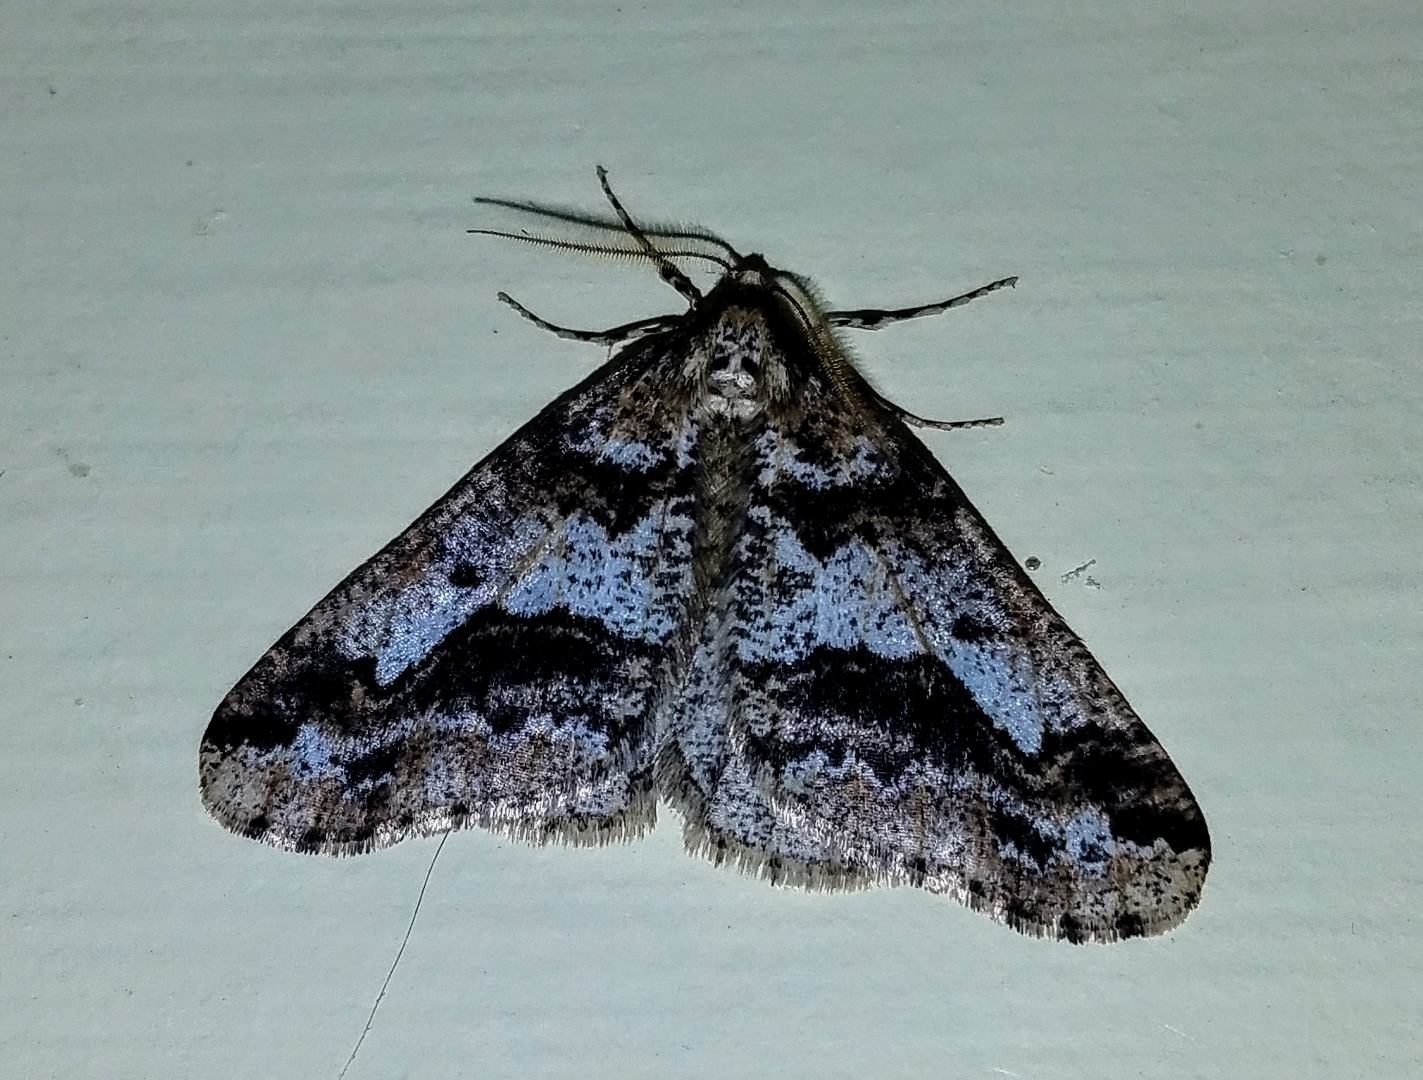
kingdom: Animalia
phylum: Arthropoda
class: Insecta
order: Lepidoptera
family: Geometridae
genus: Erannis
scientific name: Erannis vancouverensis
